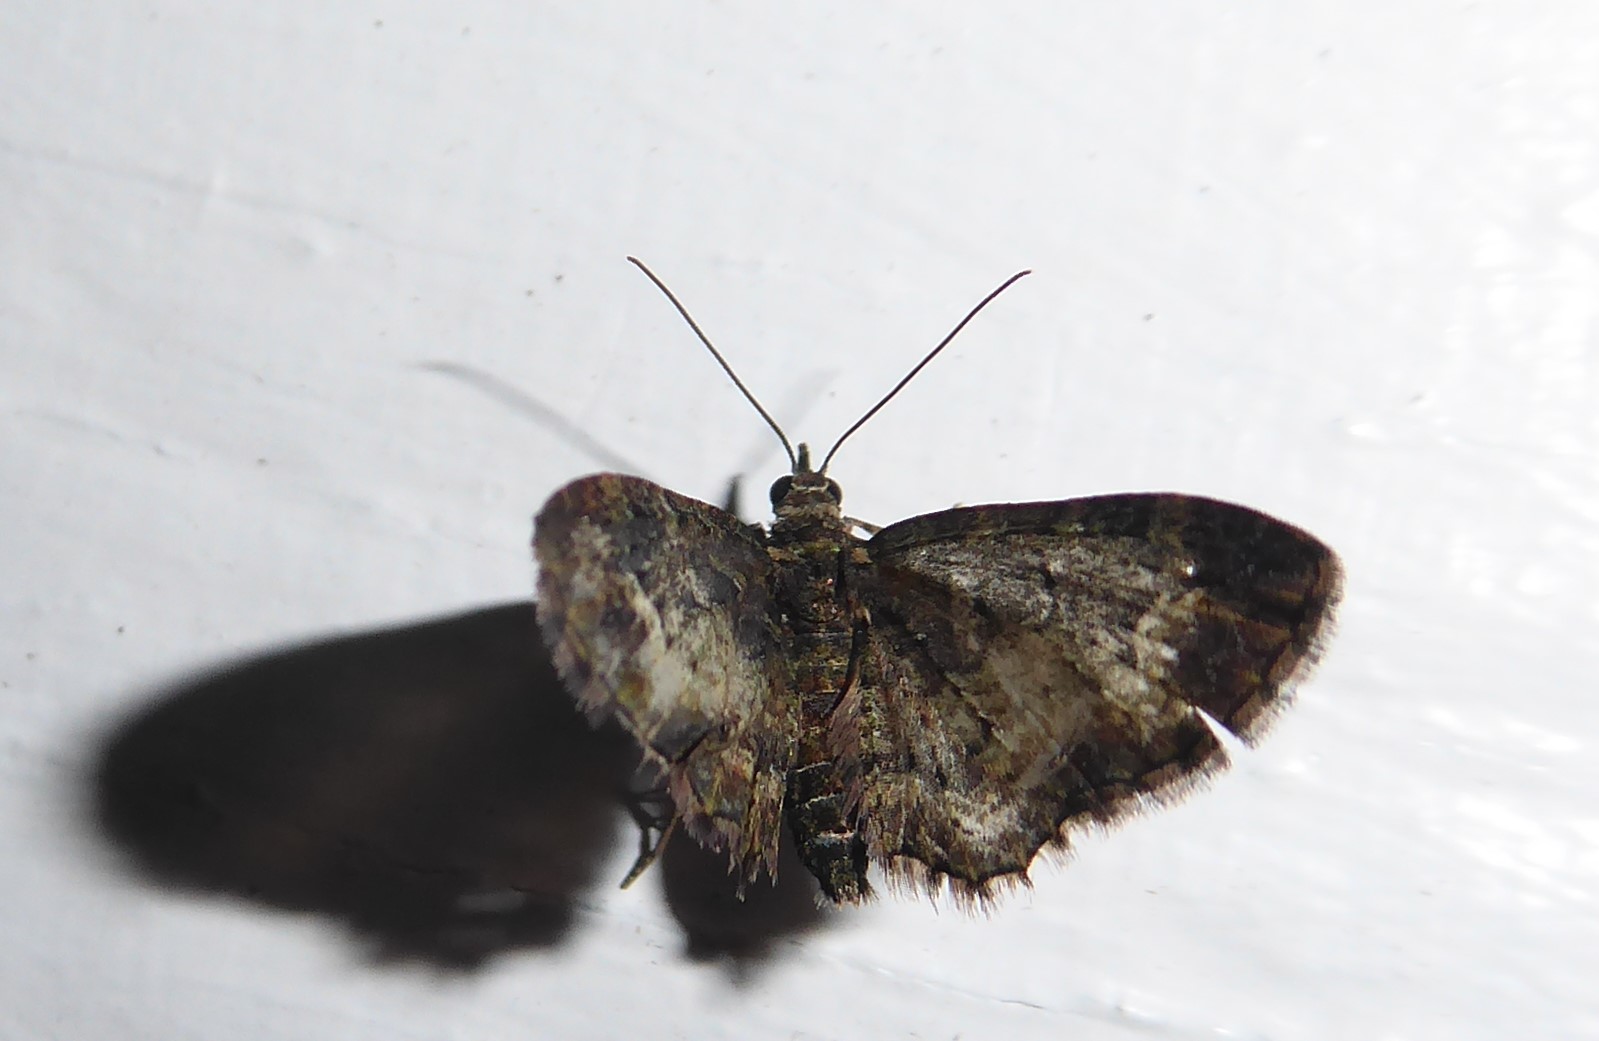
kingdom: Animalia
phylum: Arthropoda
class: Insecta
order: Lepidoptera
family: Geometridae
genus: Pasiphilodes
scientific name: Pasiphilodes testulata
